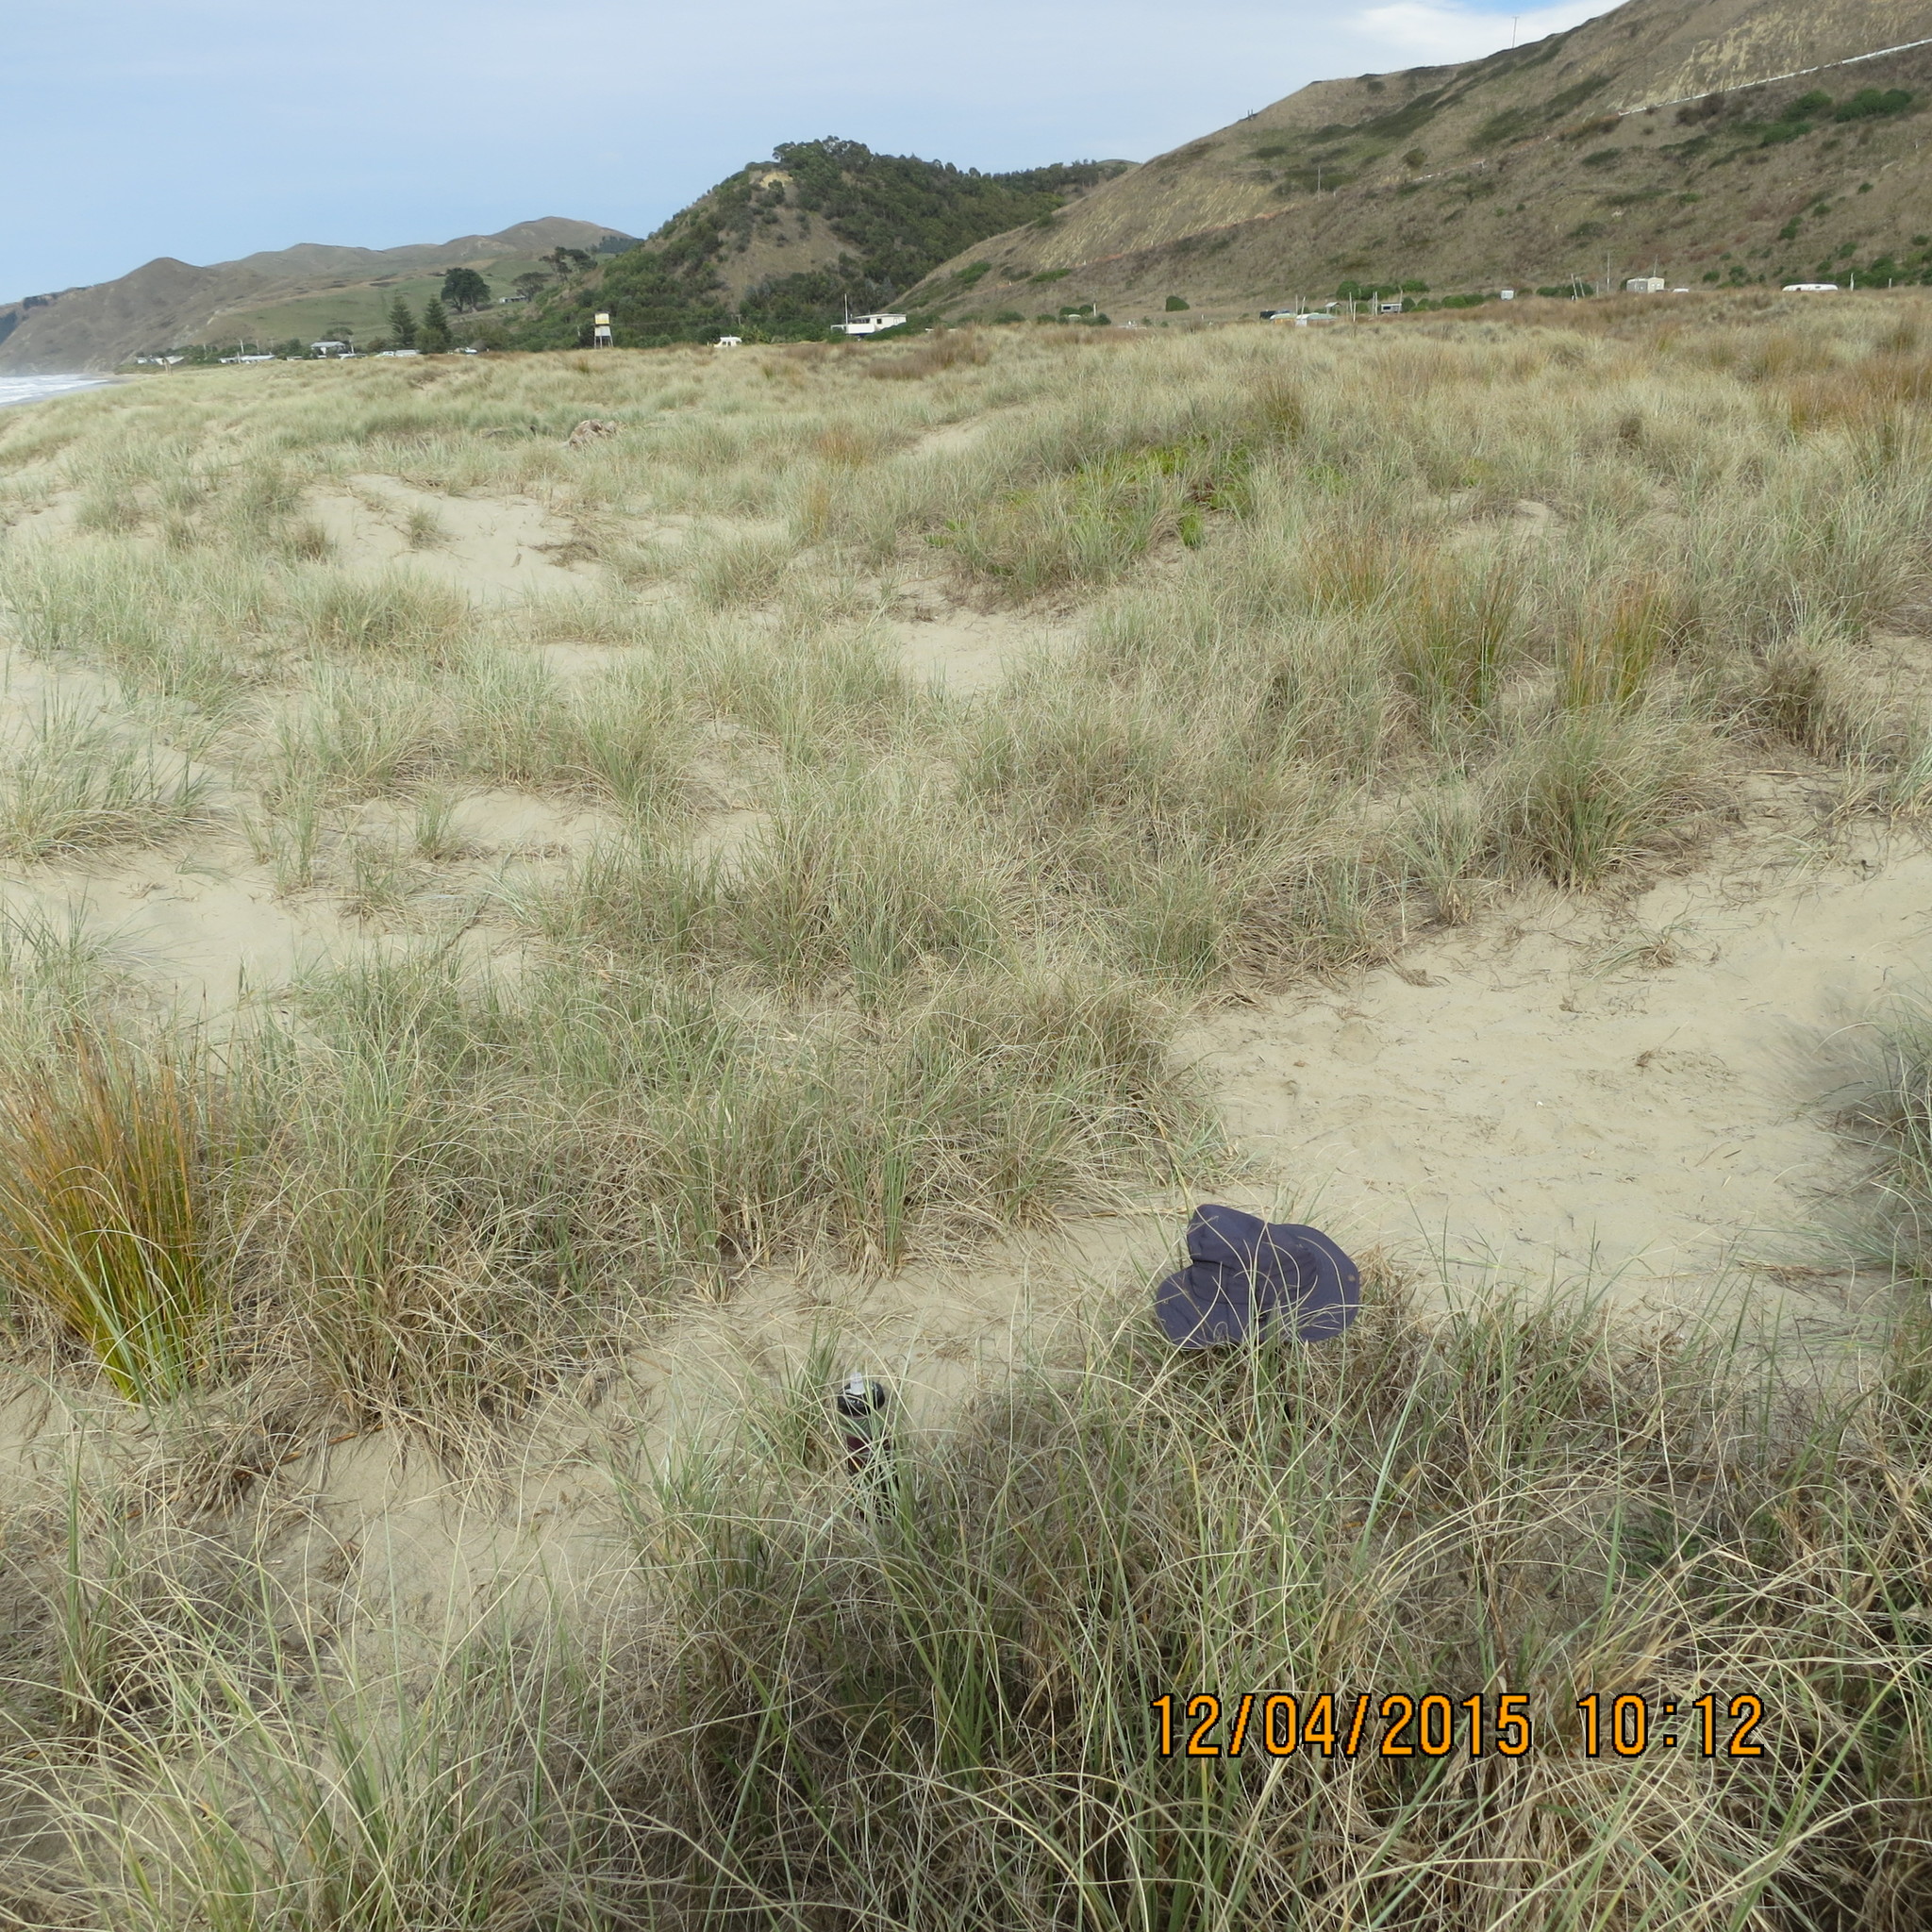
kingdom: Animalia
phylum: Arthropoda
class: Arachnida
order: Araneae
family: Theridiidae
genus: Latrodectus
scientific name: Latrodectus katipo
